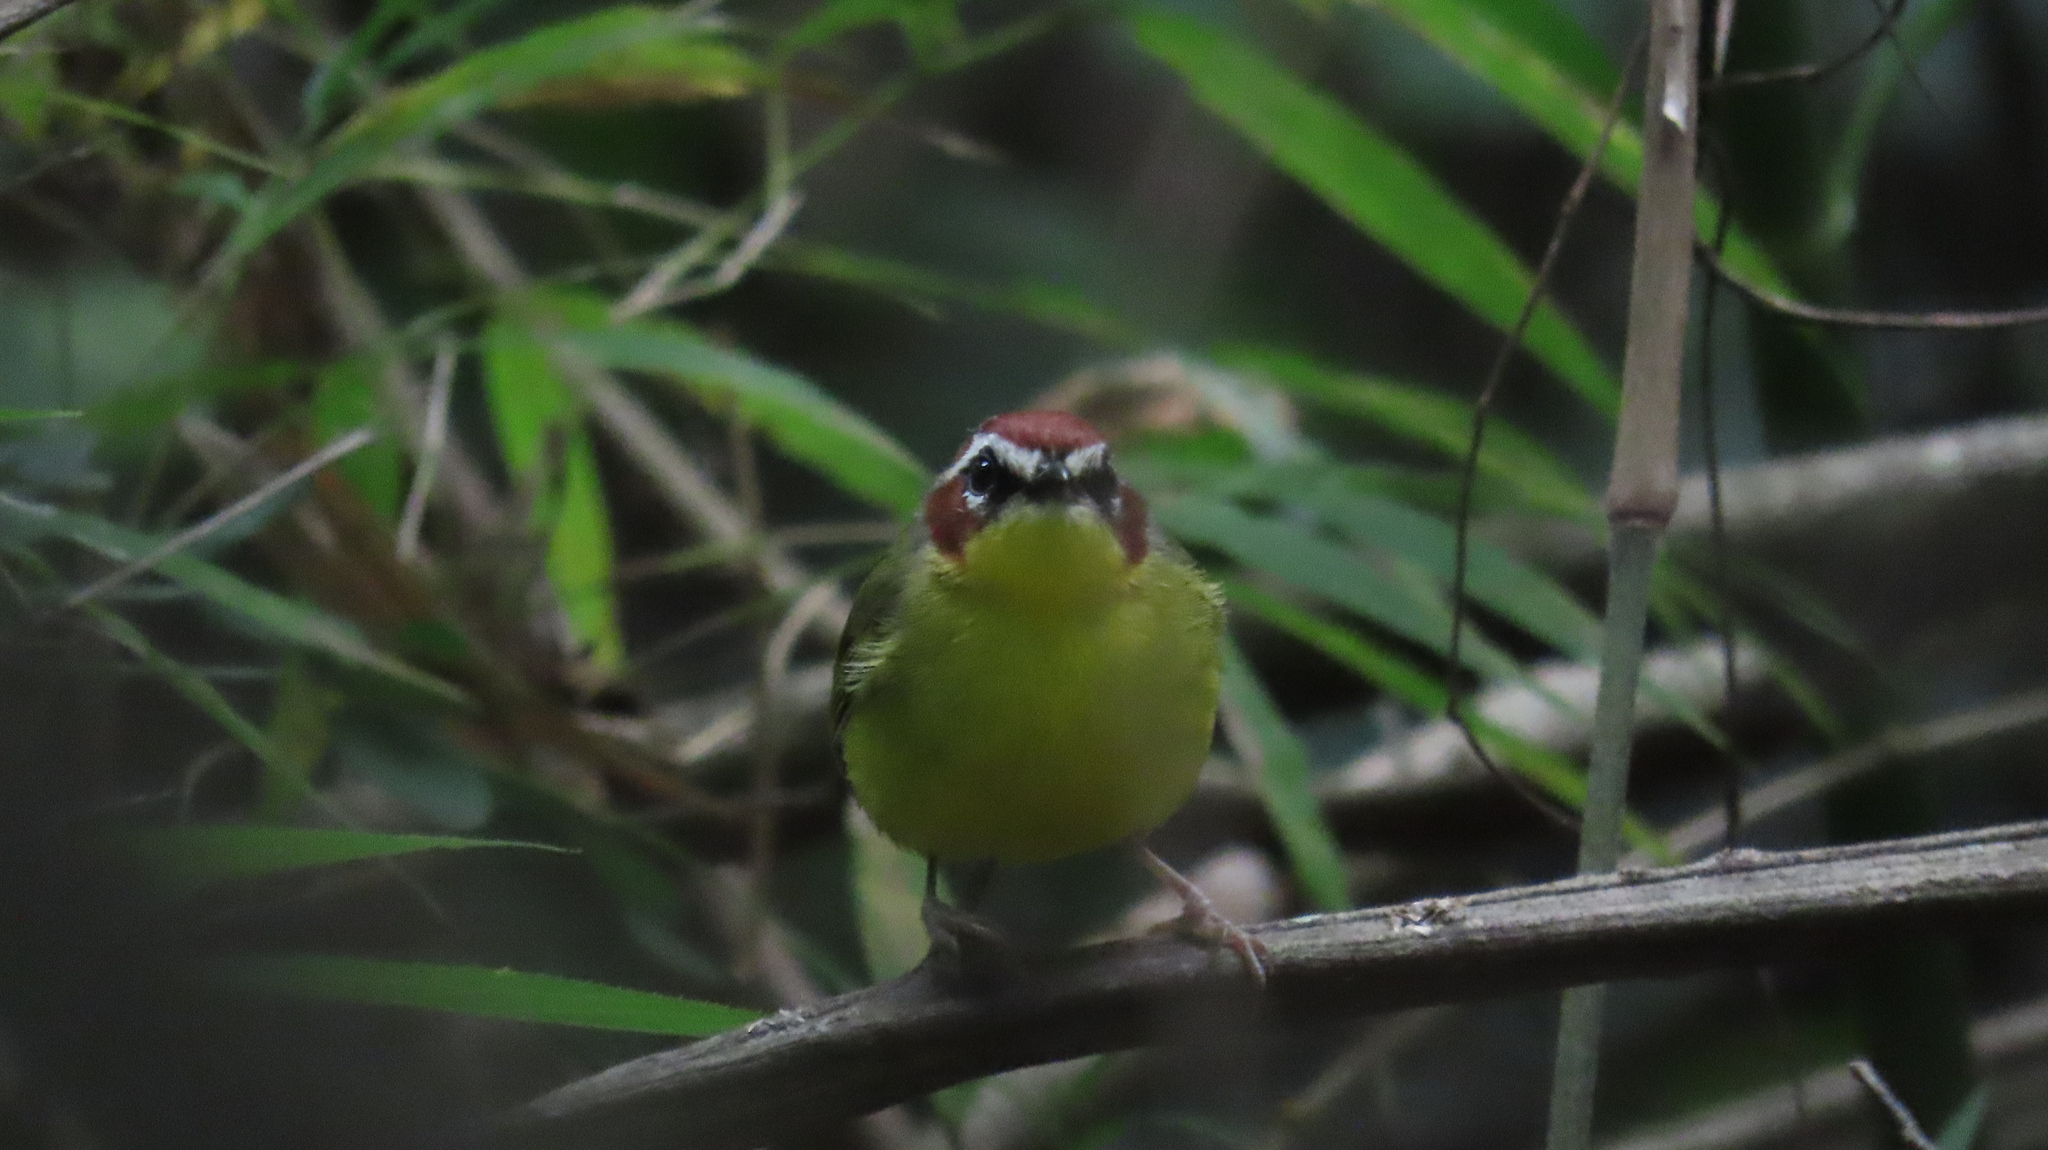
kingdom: Animalia
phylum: Chordata
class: Aves
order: Passeriformes
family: Parulidae
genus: Basileuterus
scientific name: Basileuterus rufifrons
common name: Rufous-capped warbler
